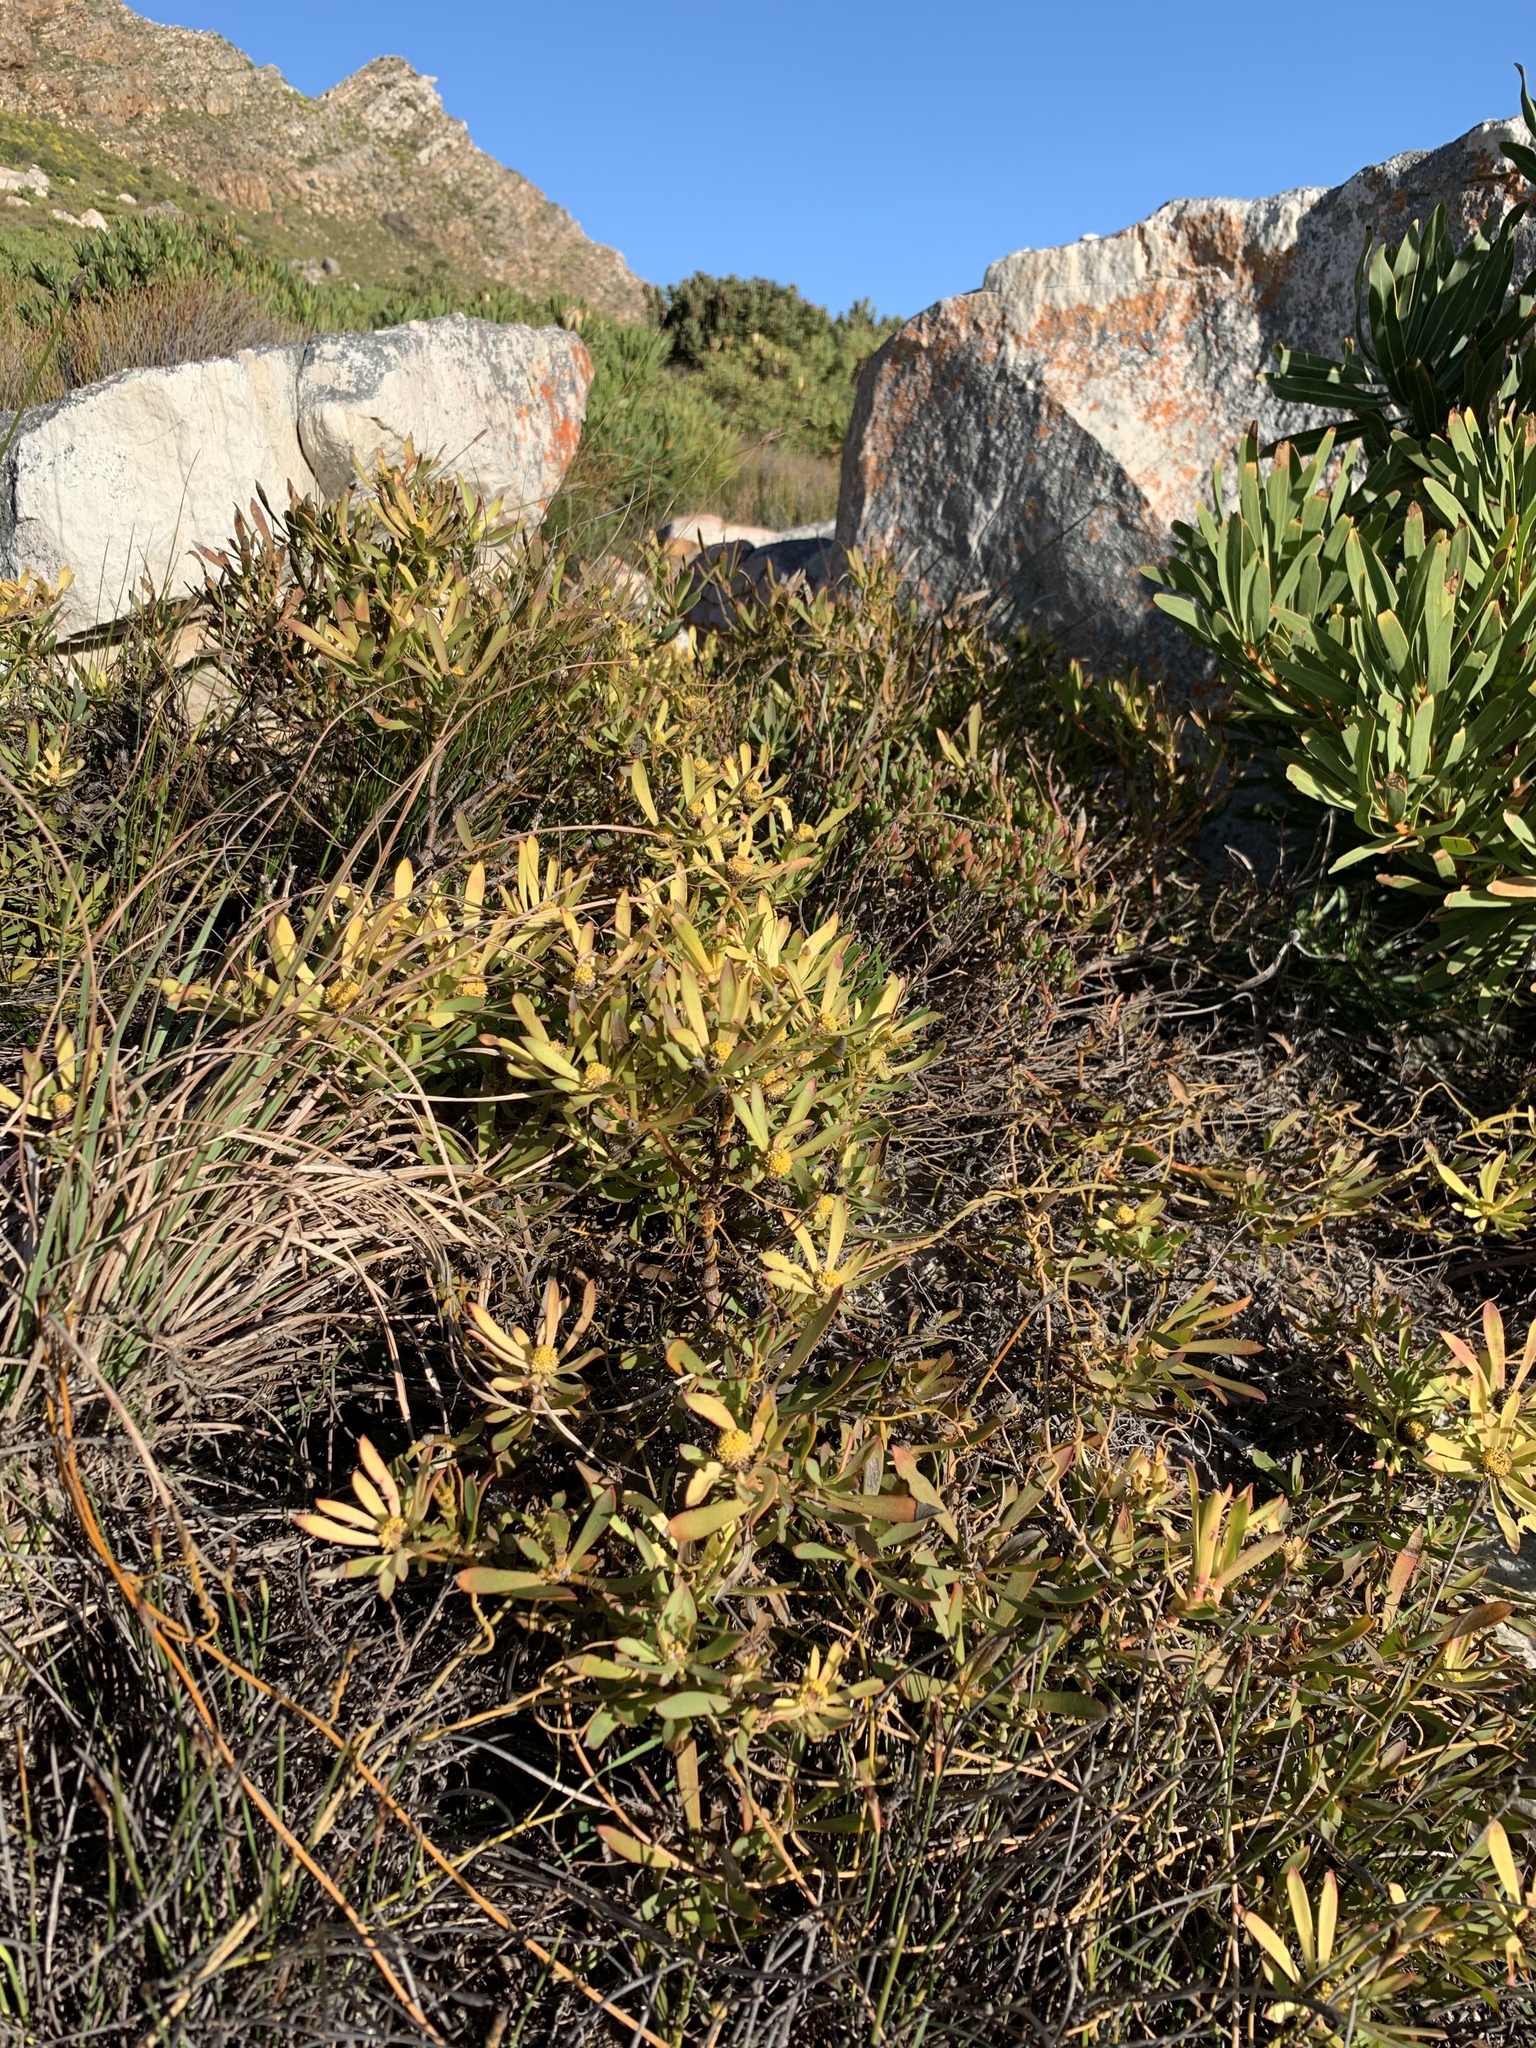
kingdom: Plantae
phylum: Tracheophyta
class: Magnoliopsida
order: Proteales
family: Proteaceae
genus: Leucadendron
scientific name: Leucadendron salignum
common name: Common sunshine conebush
